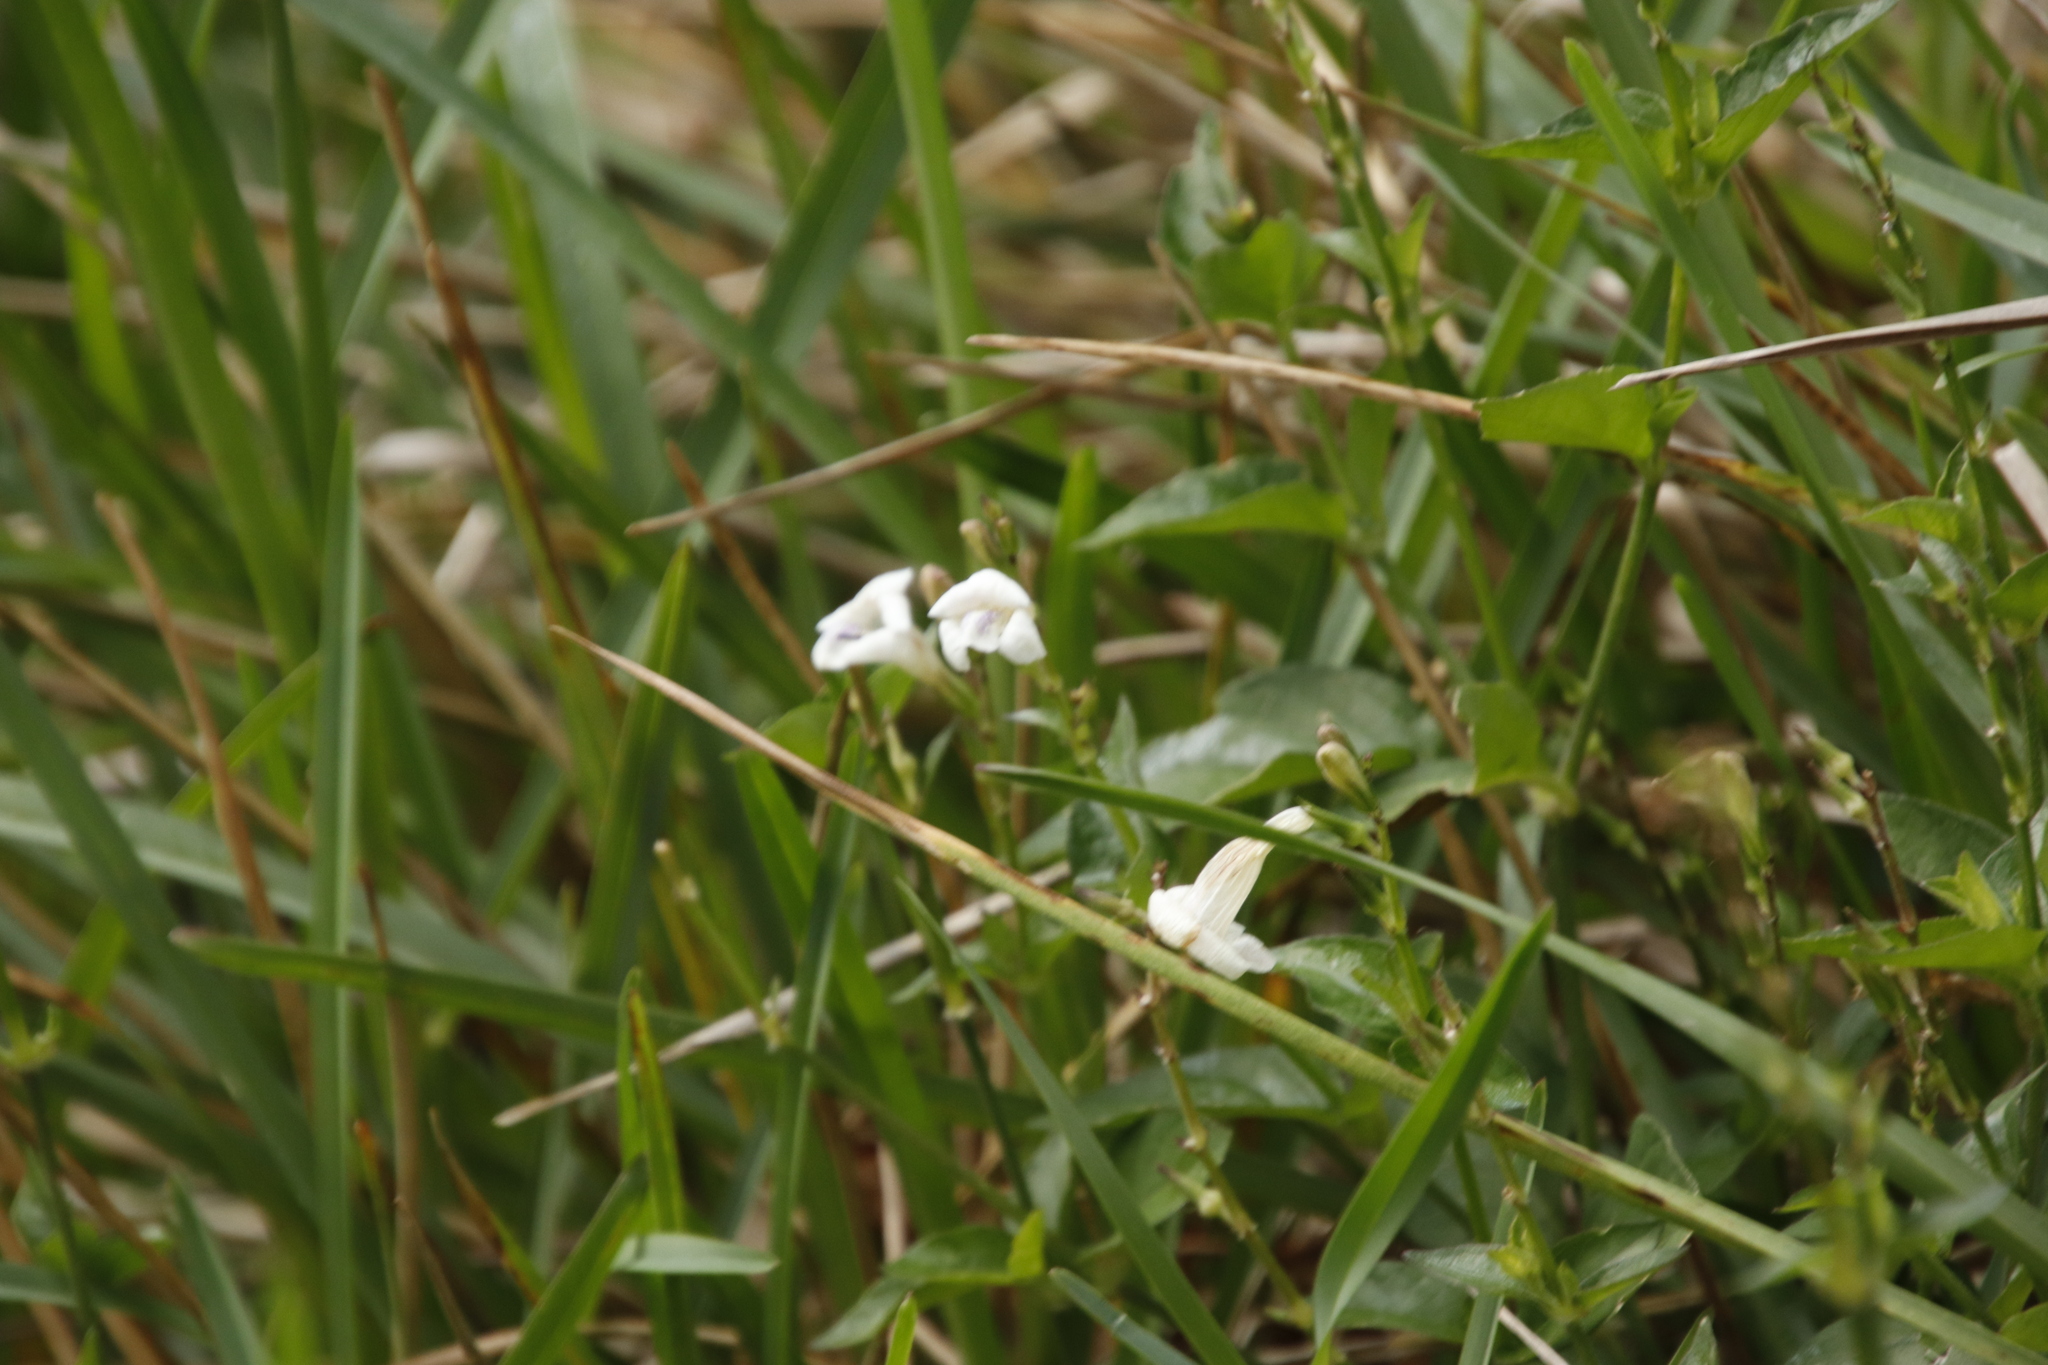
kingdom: Plantae
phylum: Tracheophyta
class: Magnoliopsida
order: Lamiales
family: Acanthaceae
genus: Asystasia
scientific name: Asystasia intrusa
